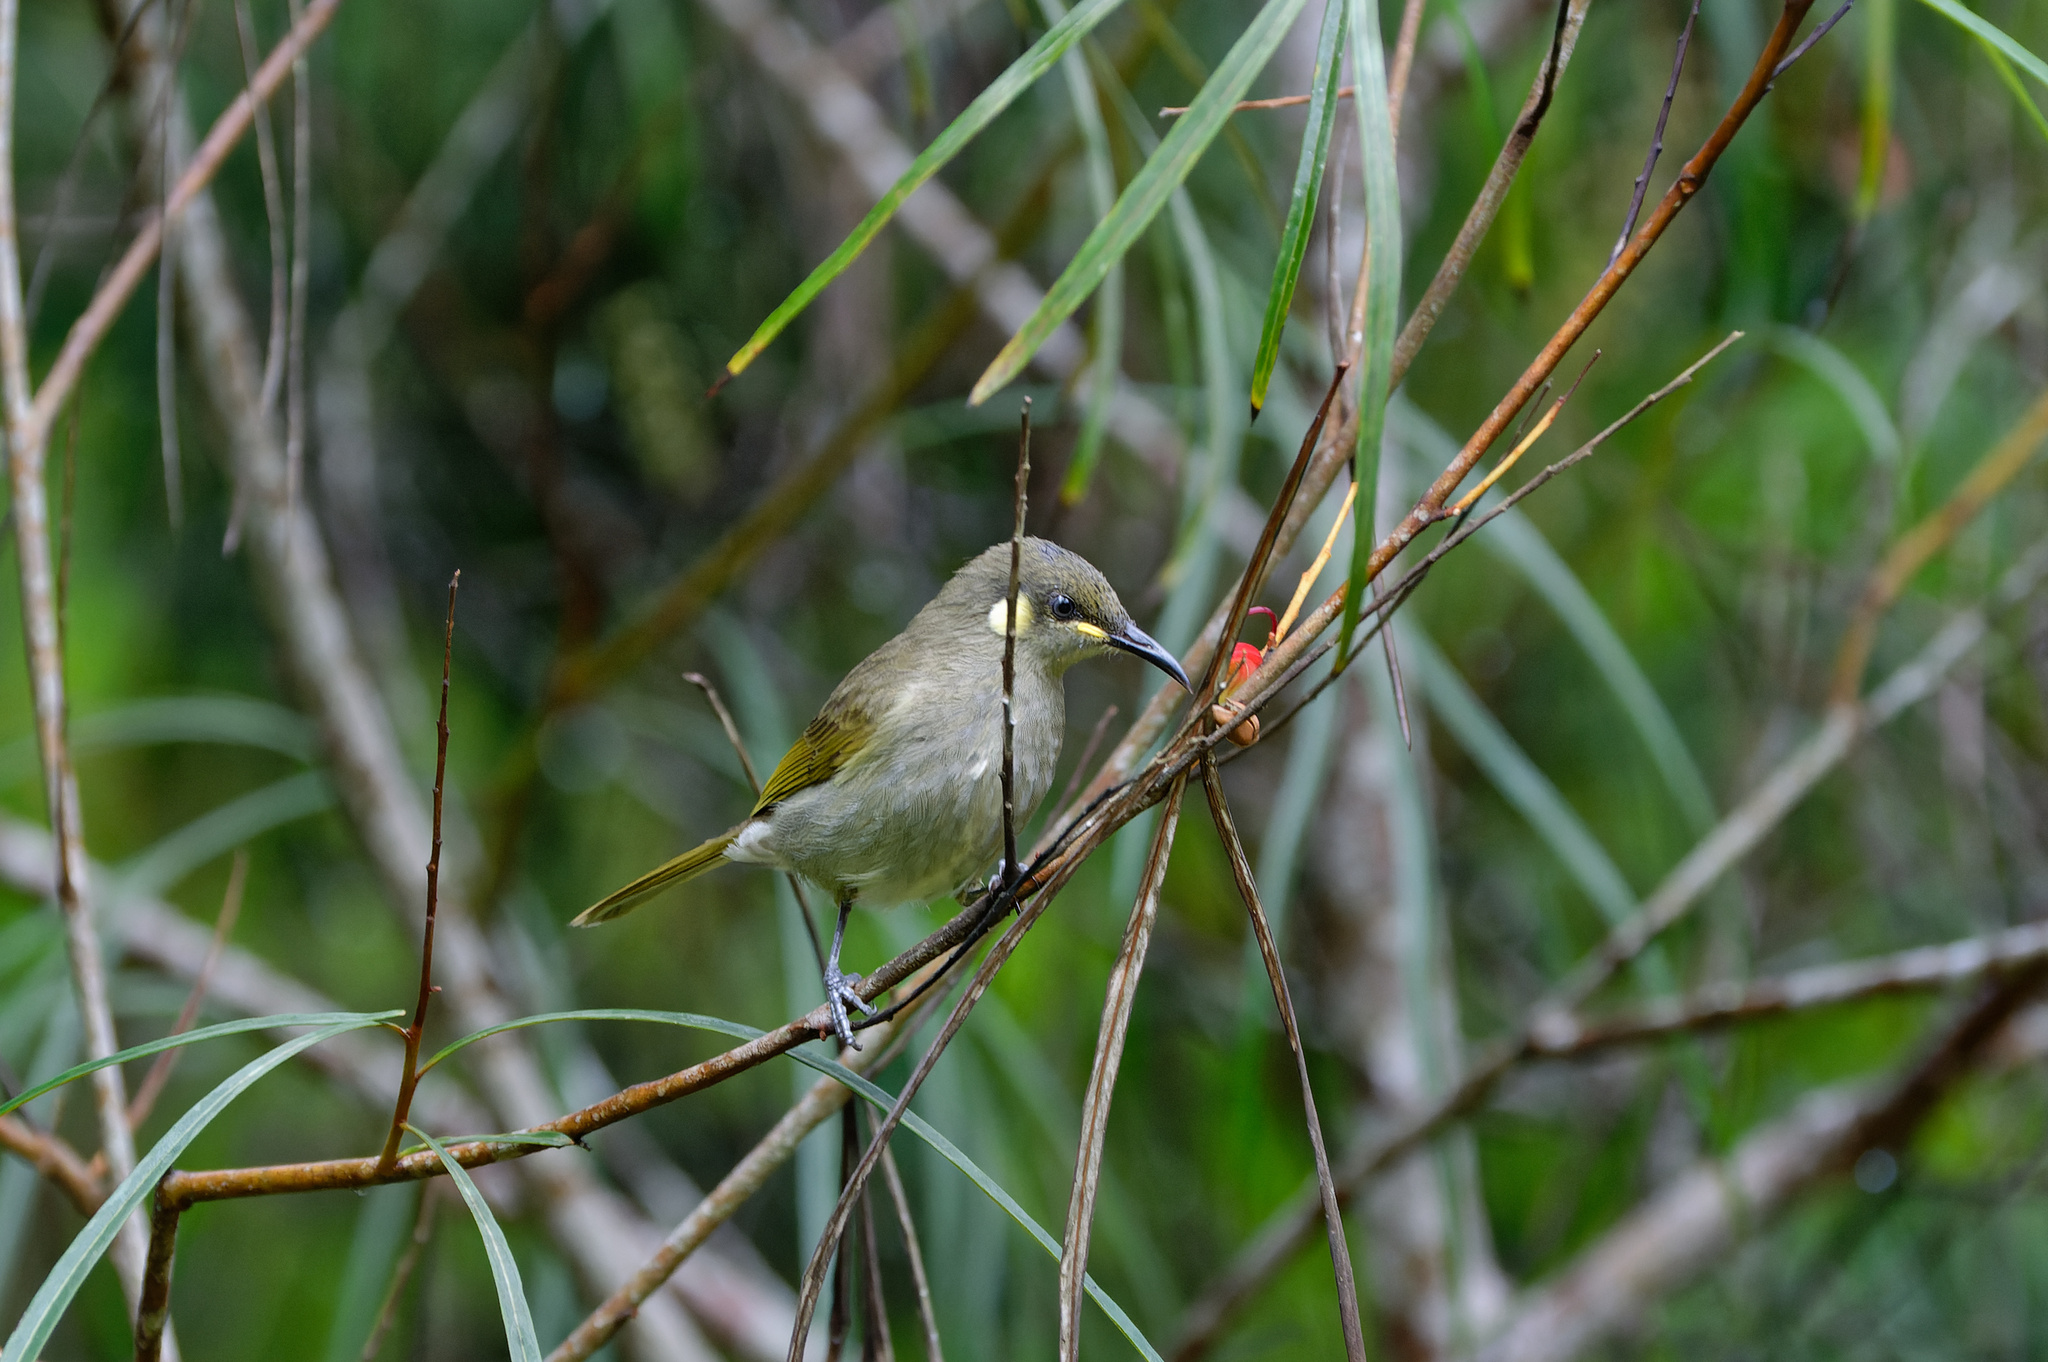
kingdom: Animalia
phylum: Chordata
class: Aves
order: Passeriformes
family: Meliphagidae
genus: Microptilotis
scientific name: Microptilotis imitatrix
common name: Cryptic honeyeater
